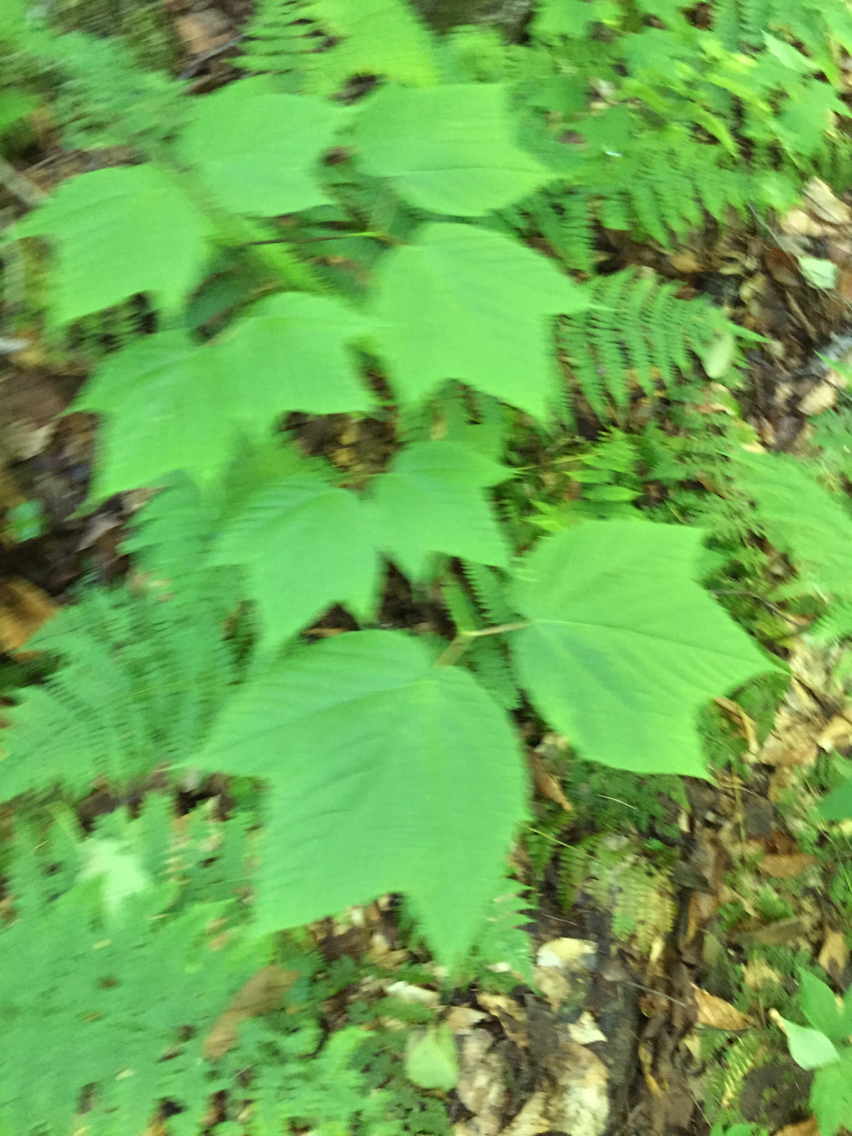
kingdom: Plantae
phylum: Tracheophyta
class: Magnoliopsida
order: Sapindales
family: Sapindaceae
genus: Acer
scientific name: Acer pensylvanicum
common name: Moosewood
